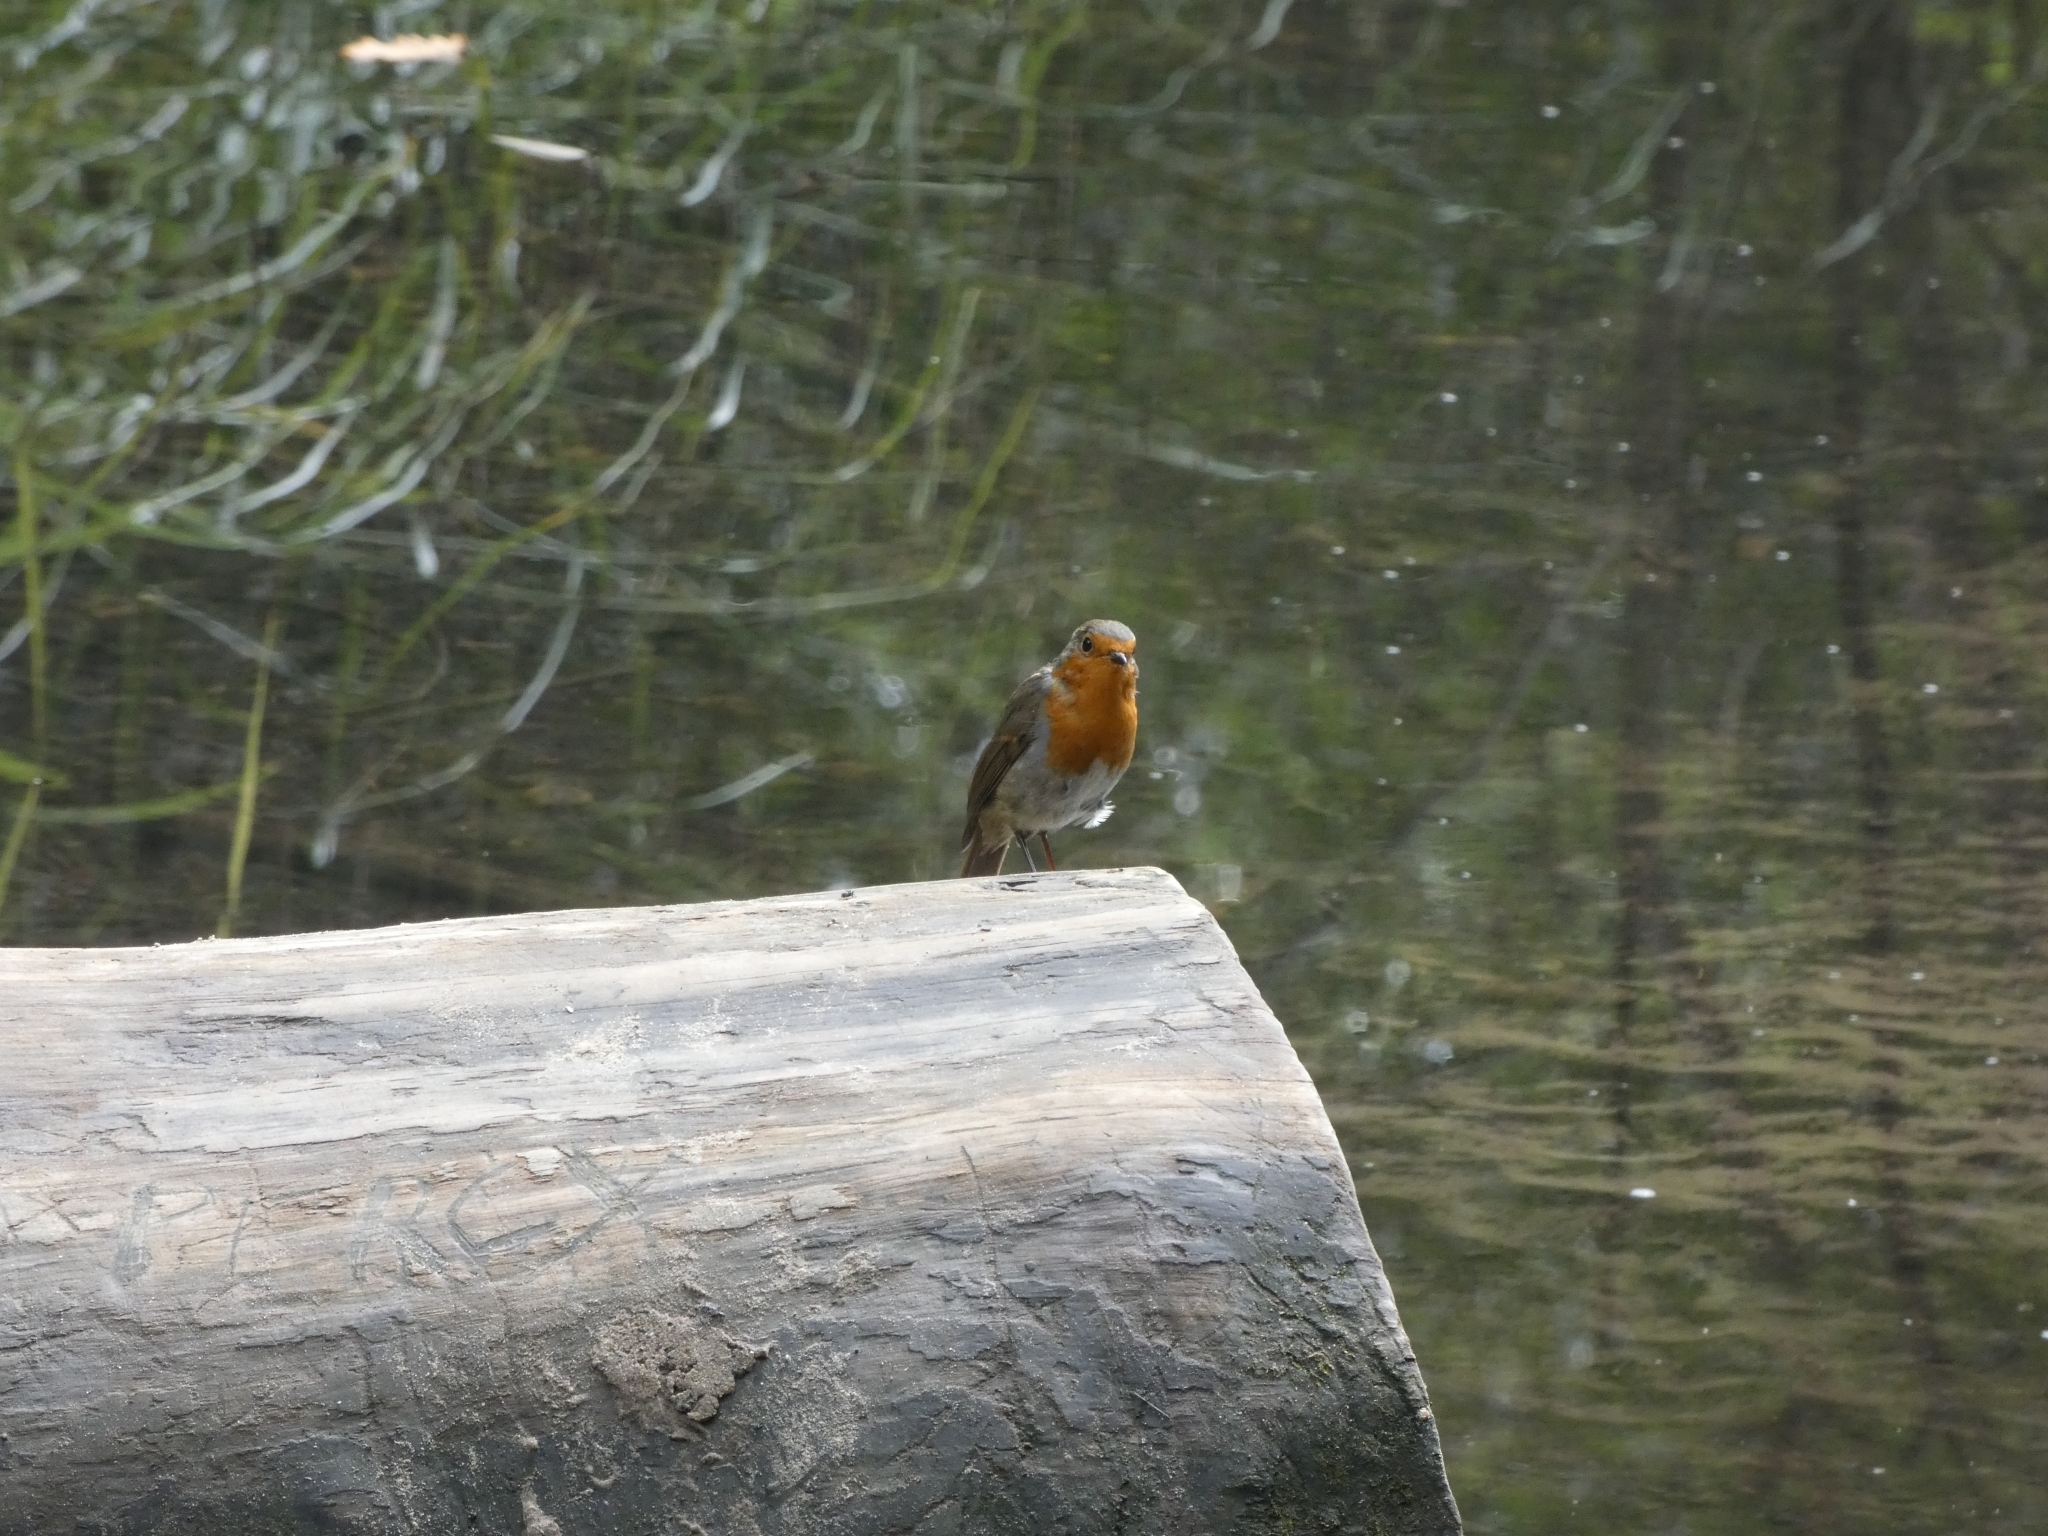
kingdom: Animalia
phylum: Chordata
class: Aves
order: Passeriformes
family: Muscicapidae
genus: Erithacus
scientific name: Erithacus rubecula
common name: European robin
